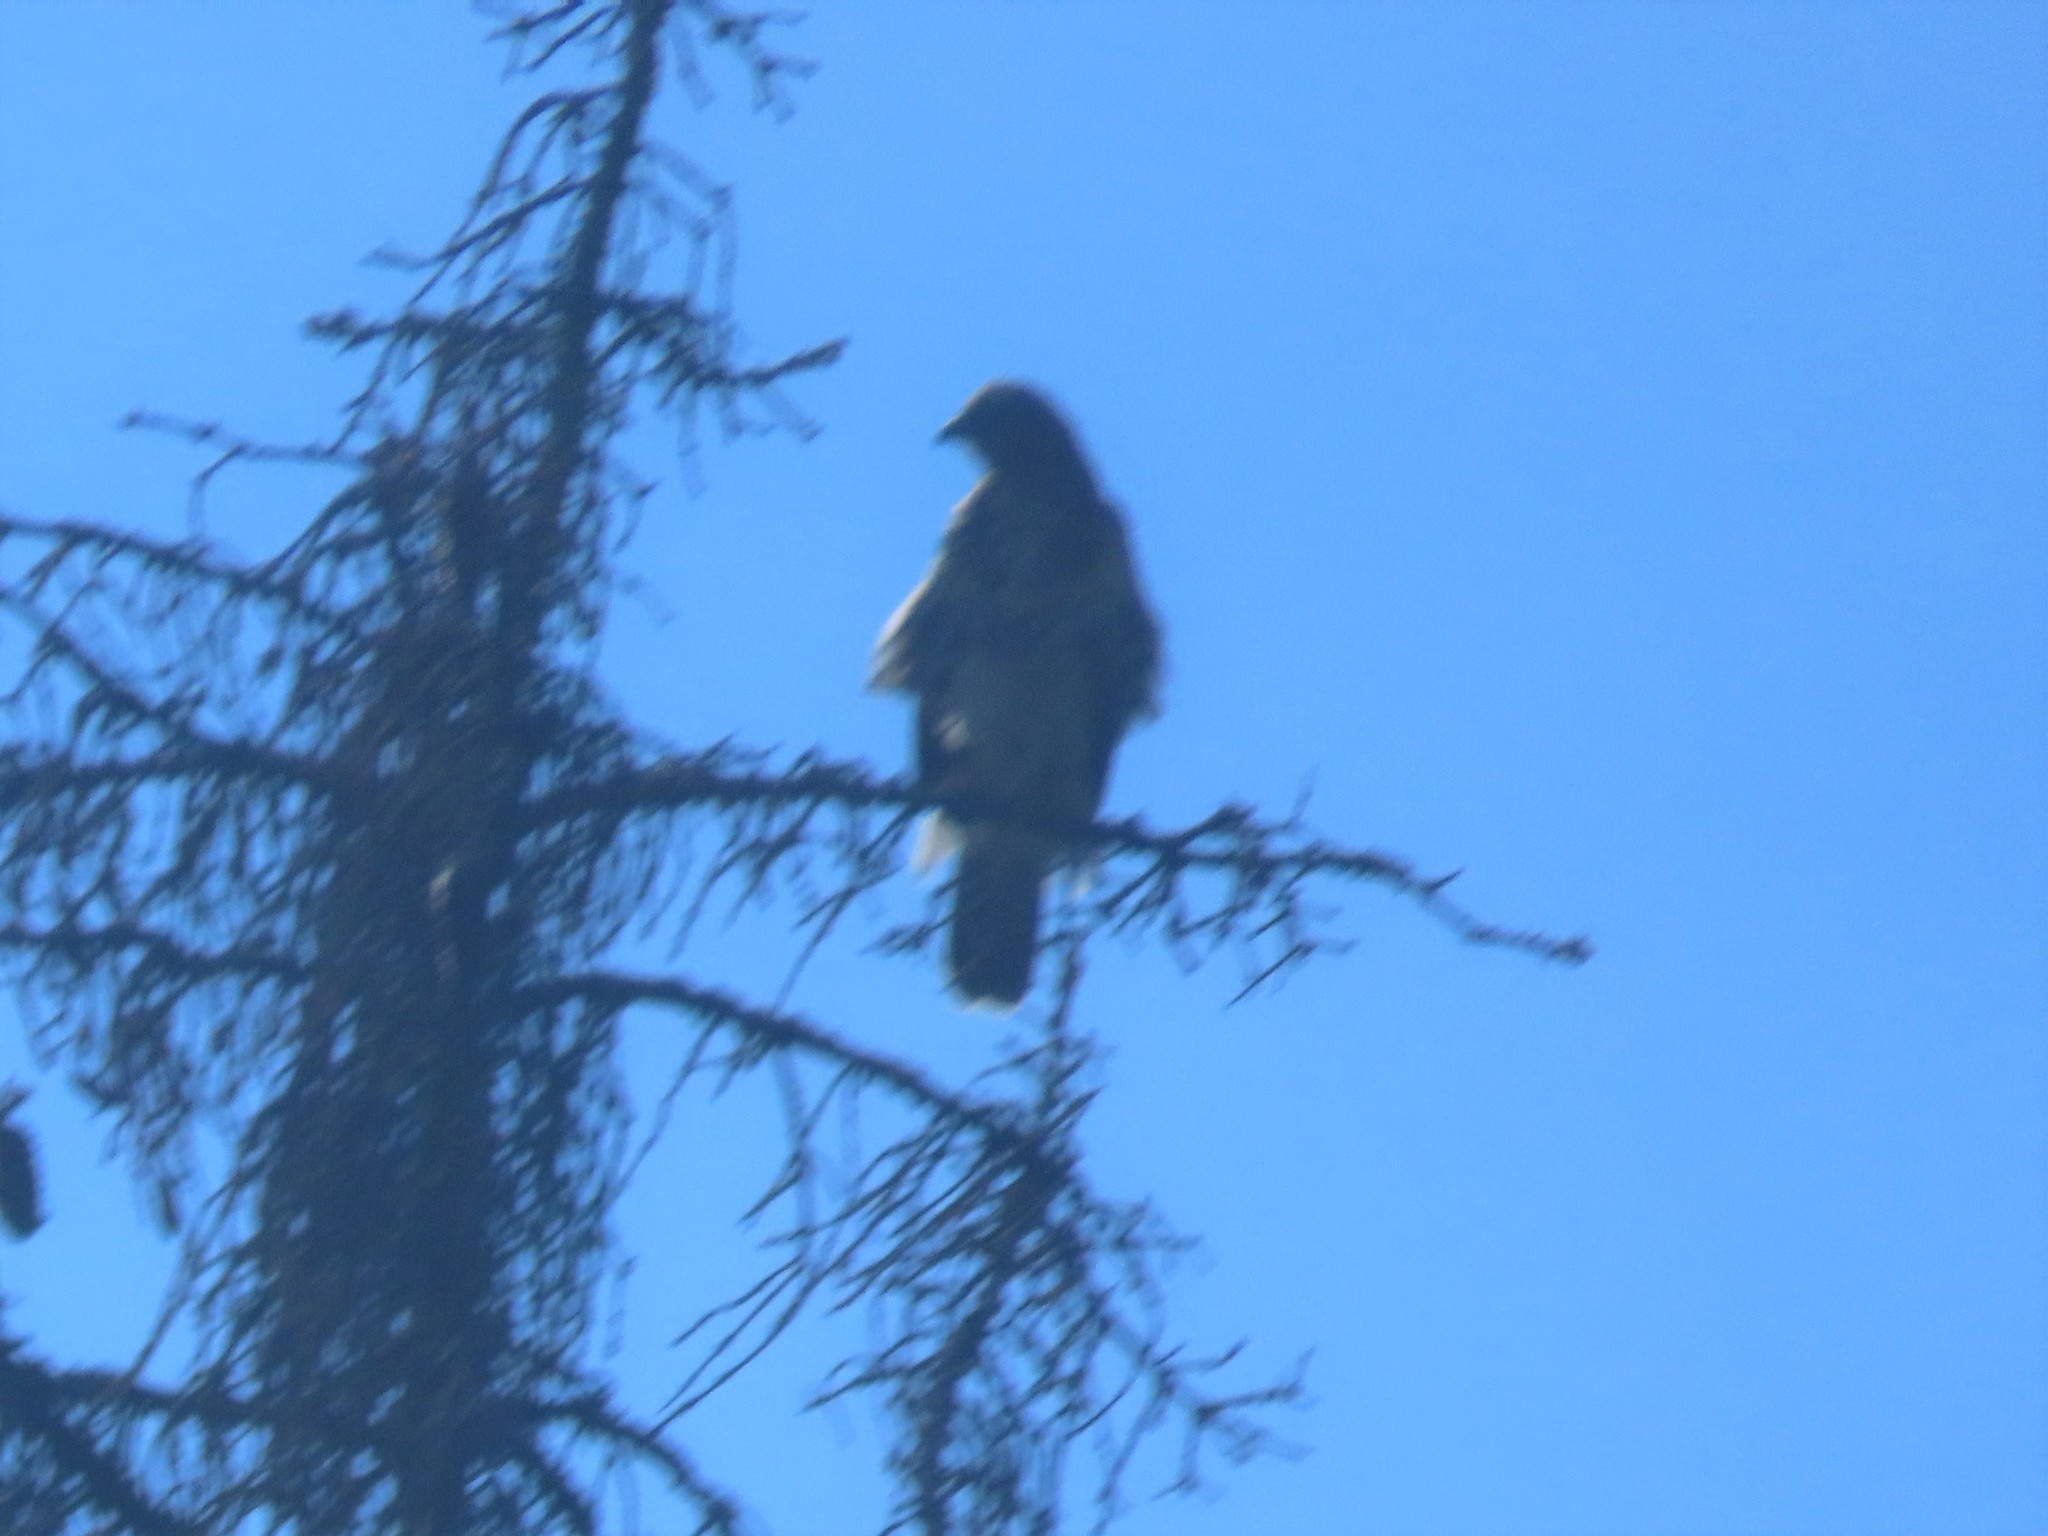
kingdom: Animalia
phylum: Chordata
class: Aves
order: Accipitriformes
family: Accipitridae
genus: Buteo
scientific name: Buteo buteo
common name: Common buzzard
